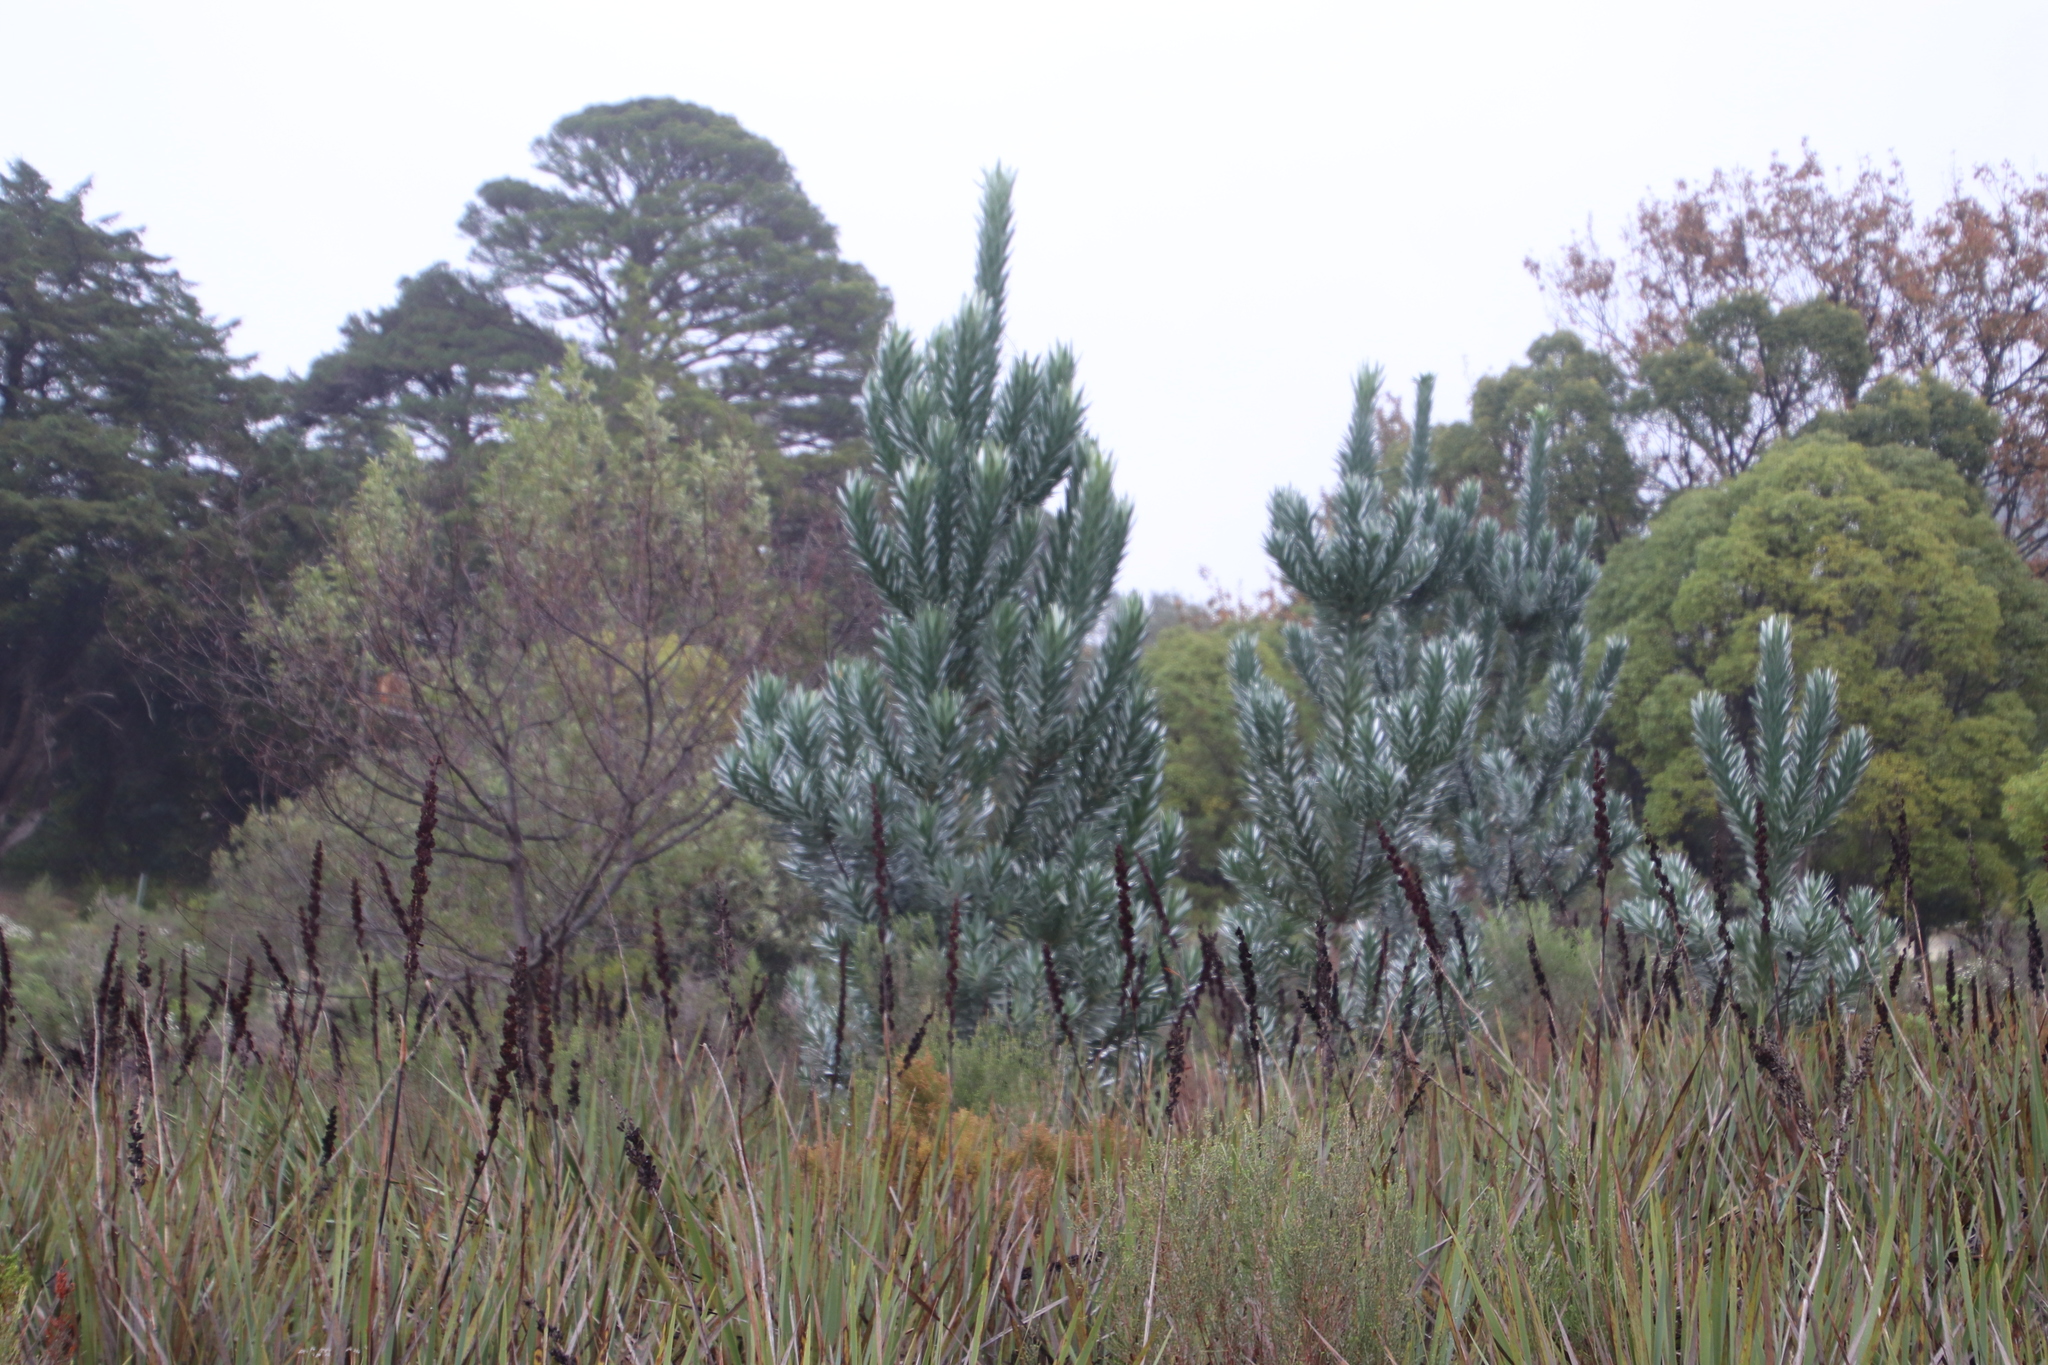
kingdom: Plantae
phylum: Tracheophyta
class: Magnoliopsida
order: Proteales
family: Proteaceae
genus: Leucadendron
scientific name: Leucadendron argenteum
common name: Cape silver tree
